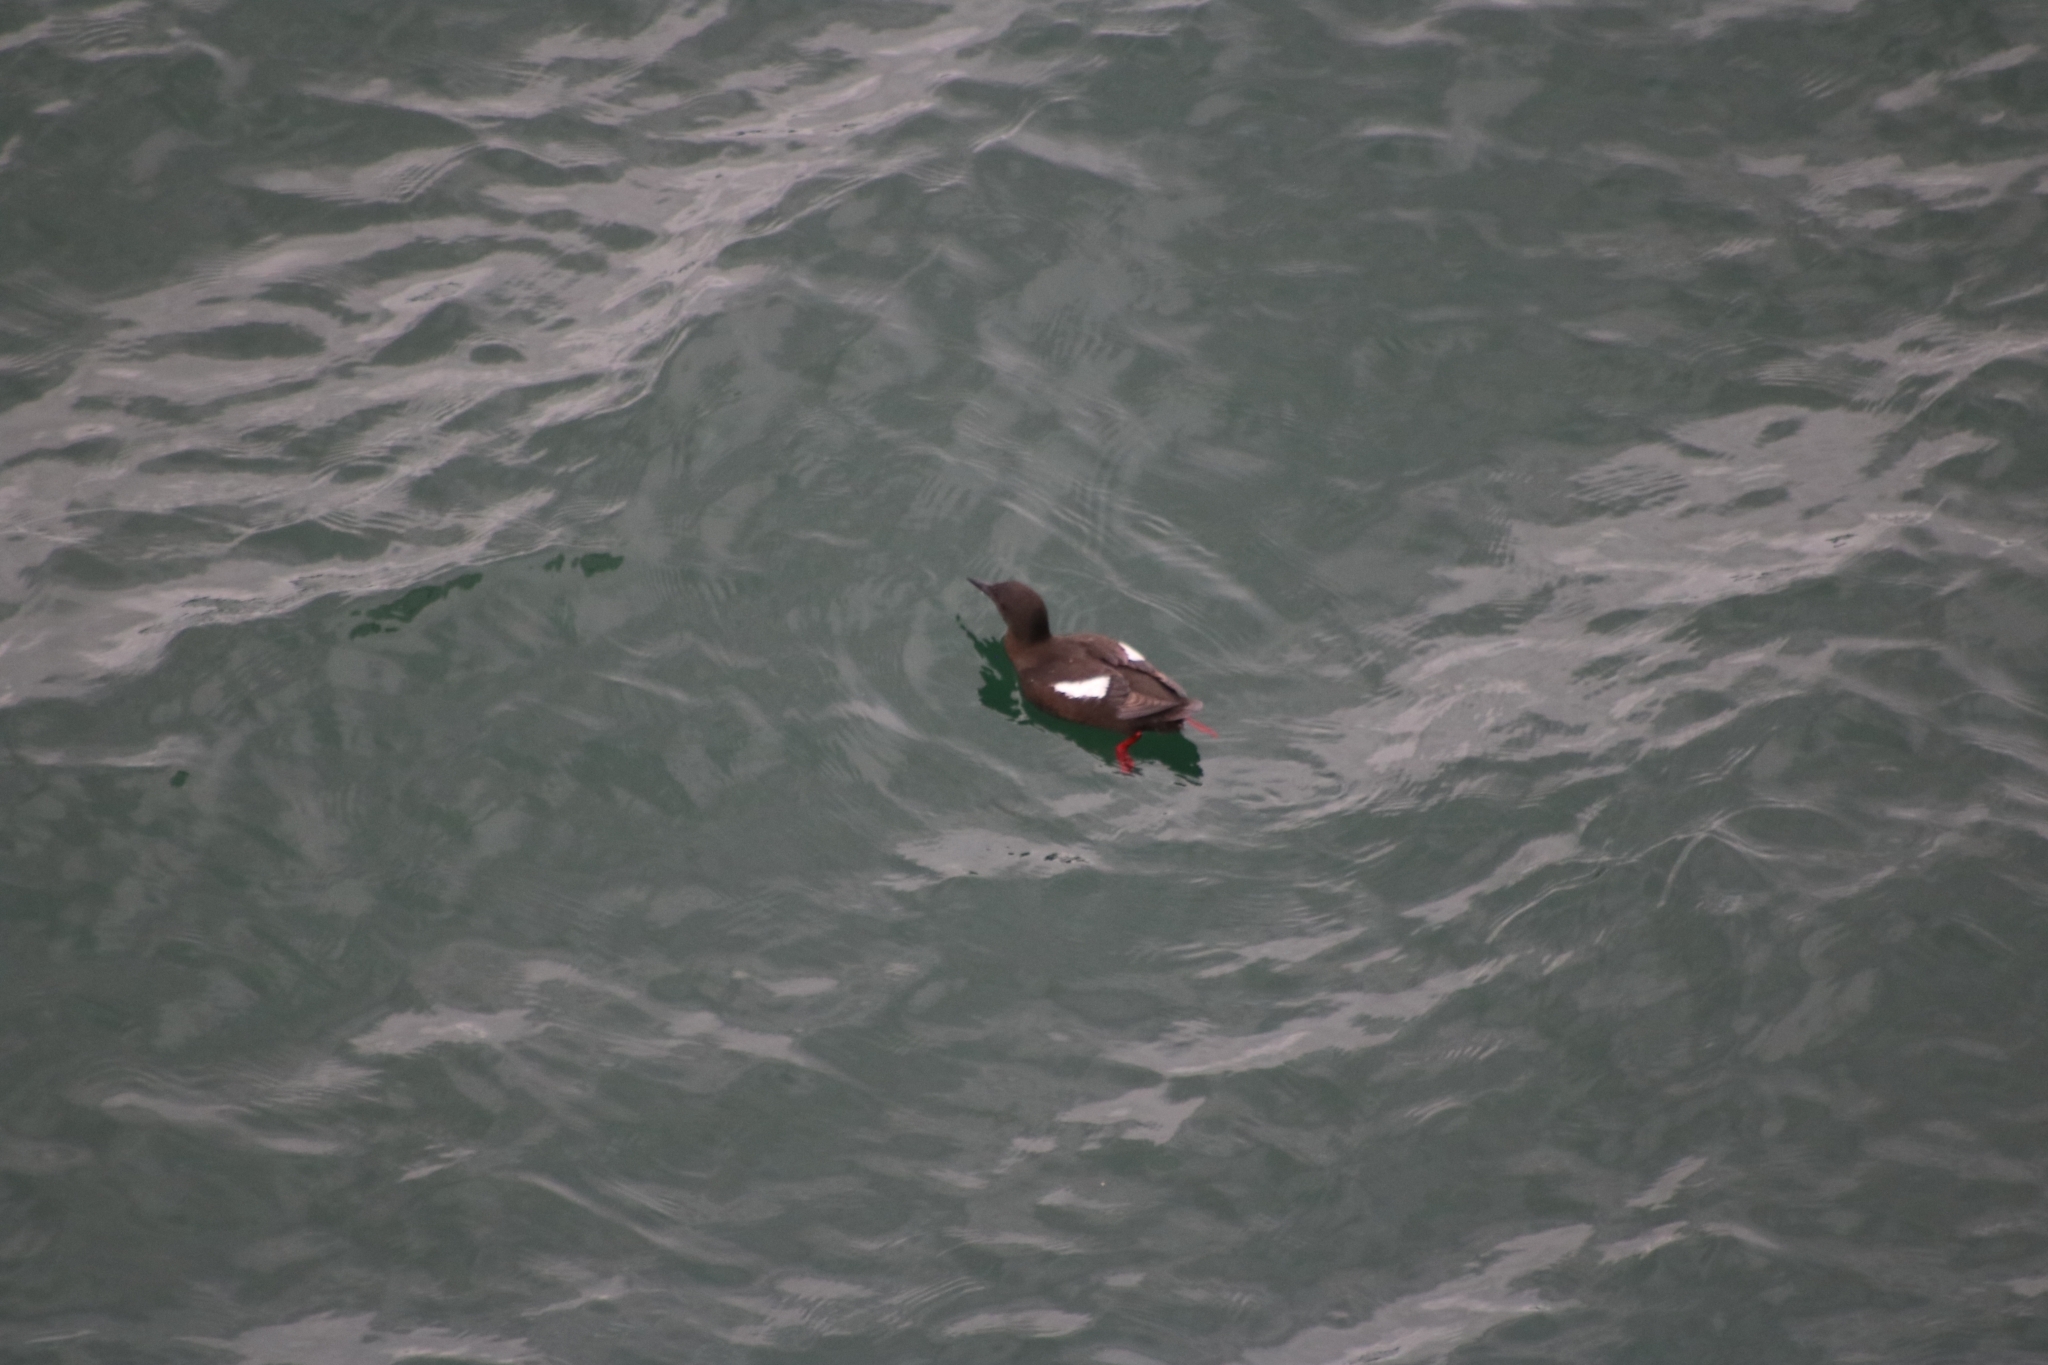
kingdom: Animalia
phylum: Chordata
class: Aves
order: Charadriiformes
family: Alcidae
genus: Cepphus
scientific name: Cepphus grylle
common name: Black guillemot
